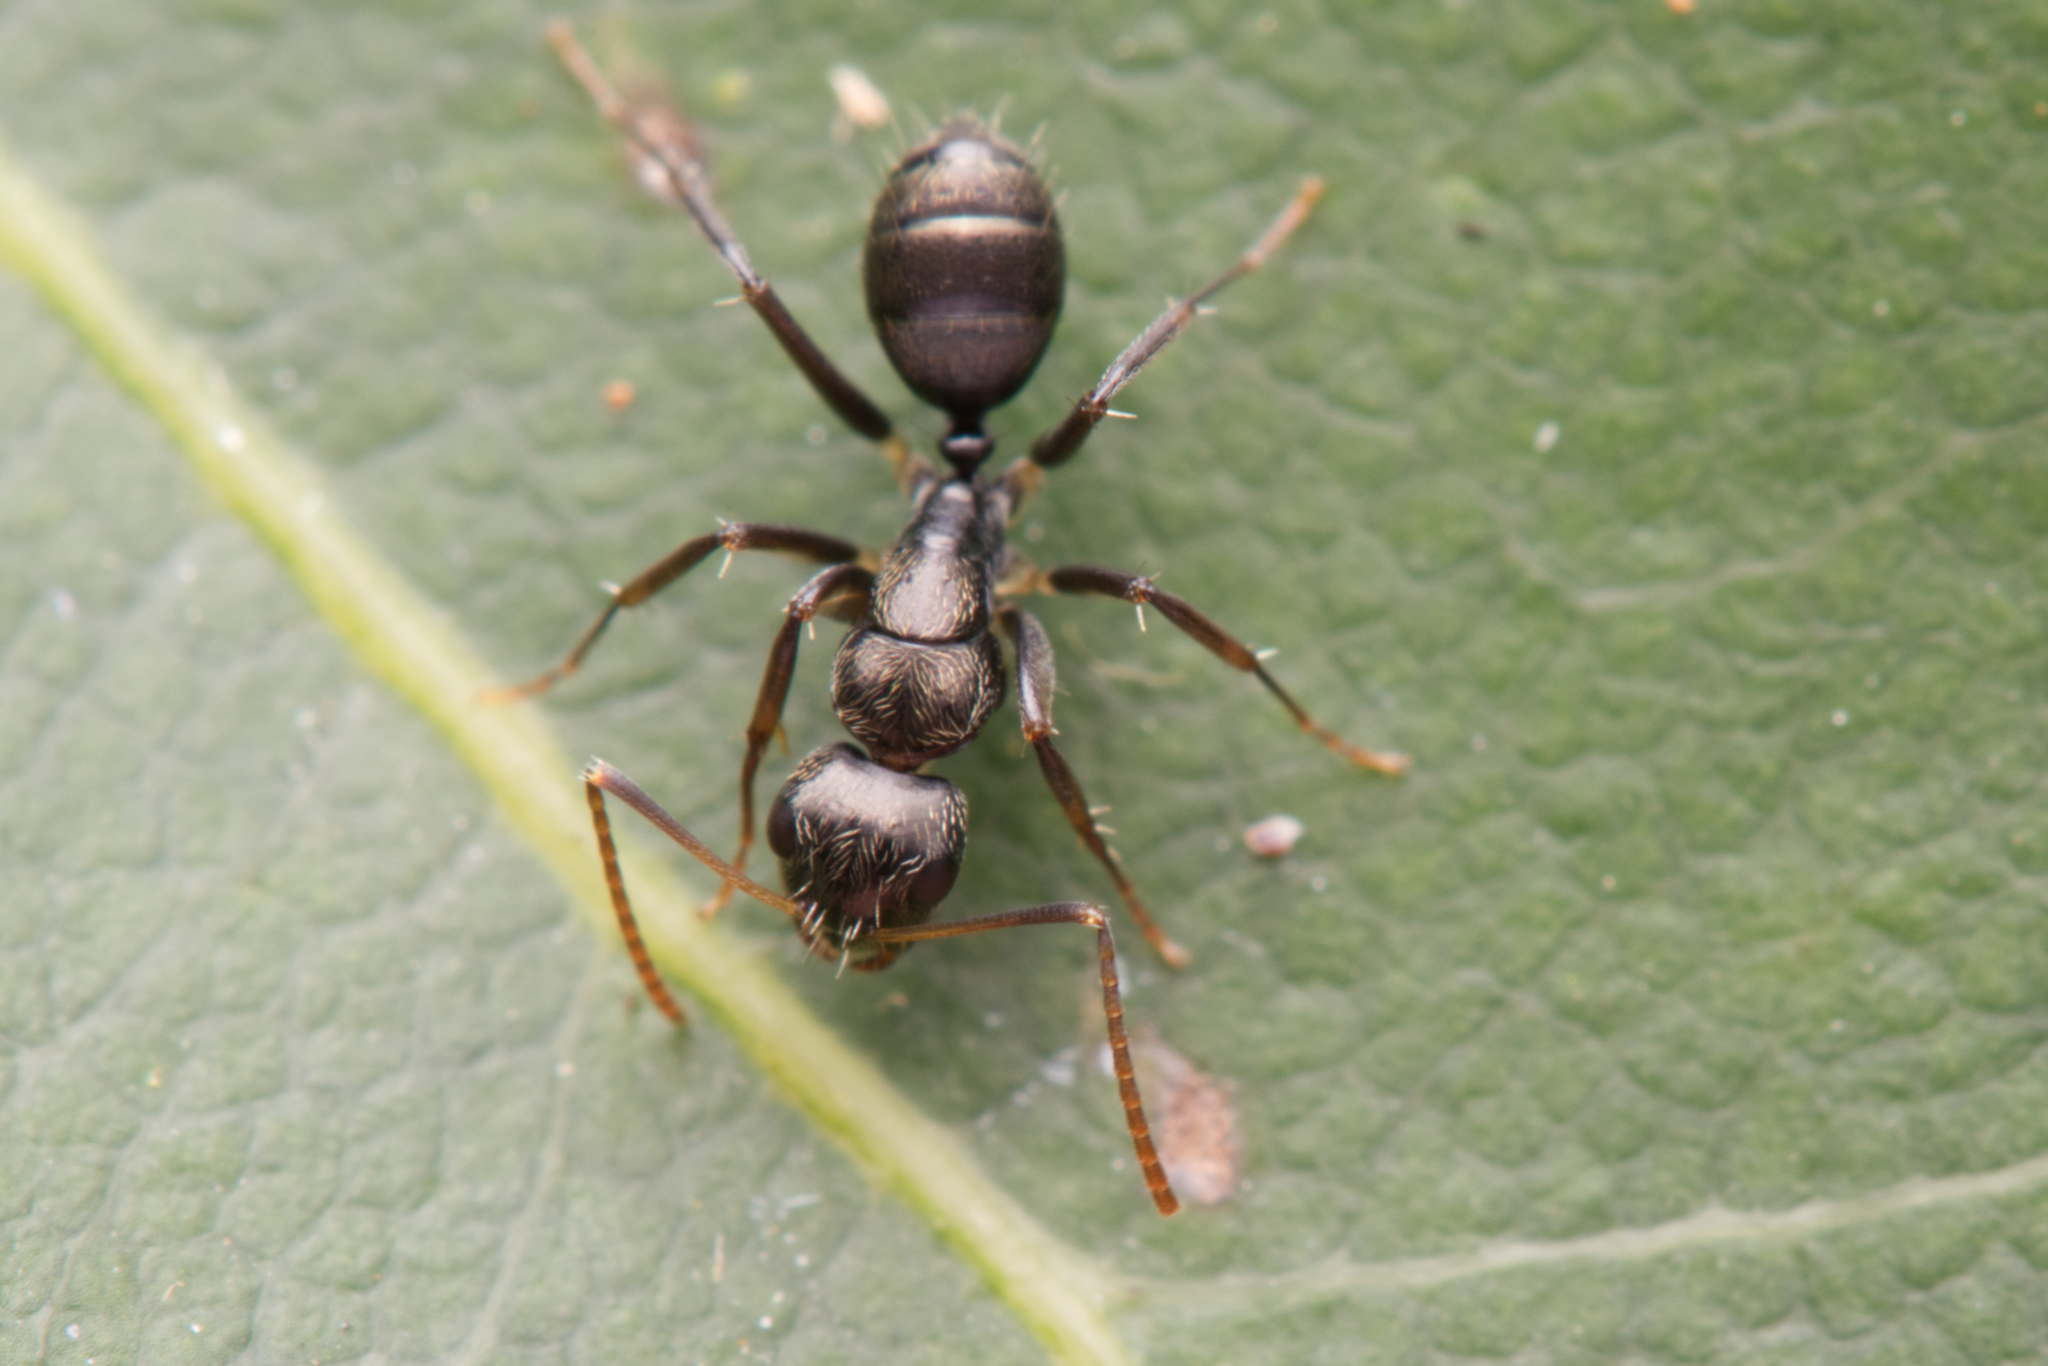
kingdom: Animalia
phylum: Arthropoda
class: Insecta
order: Hymenoptera
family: Formicidae
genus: Camponotus
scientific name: Camponotus froggatti
